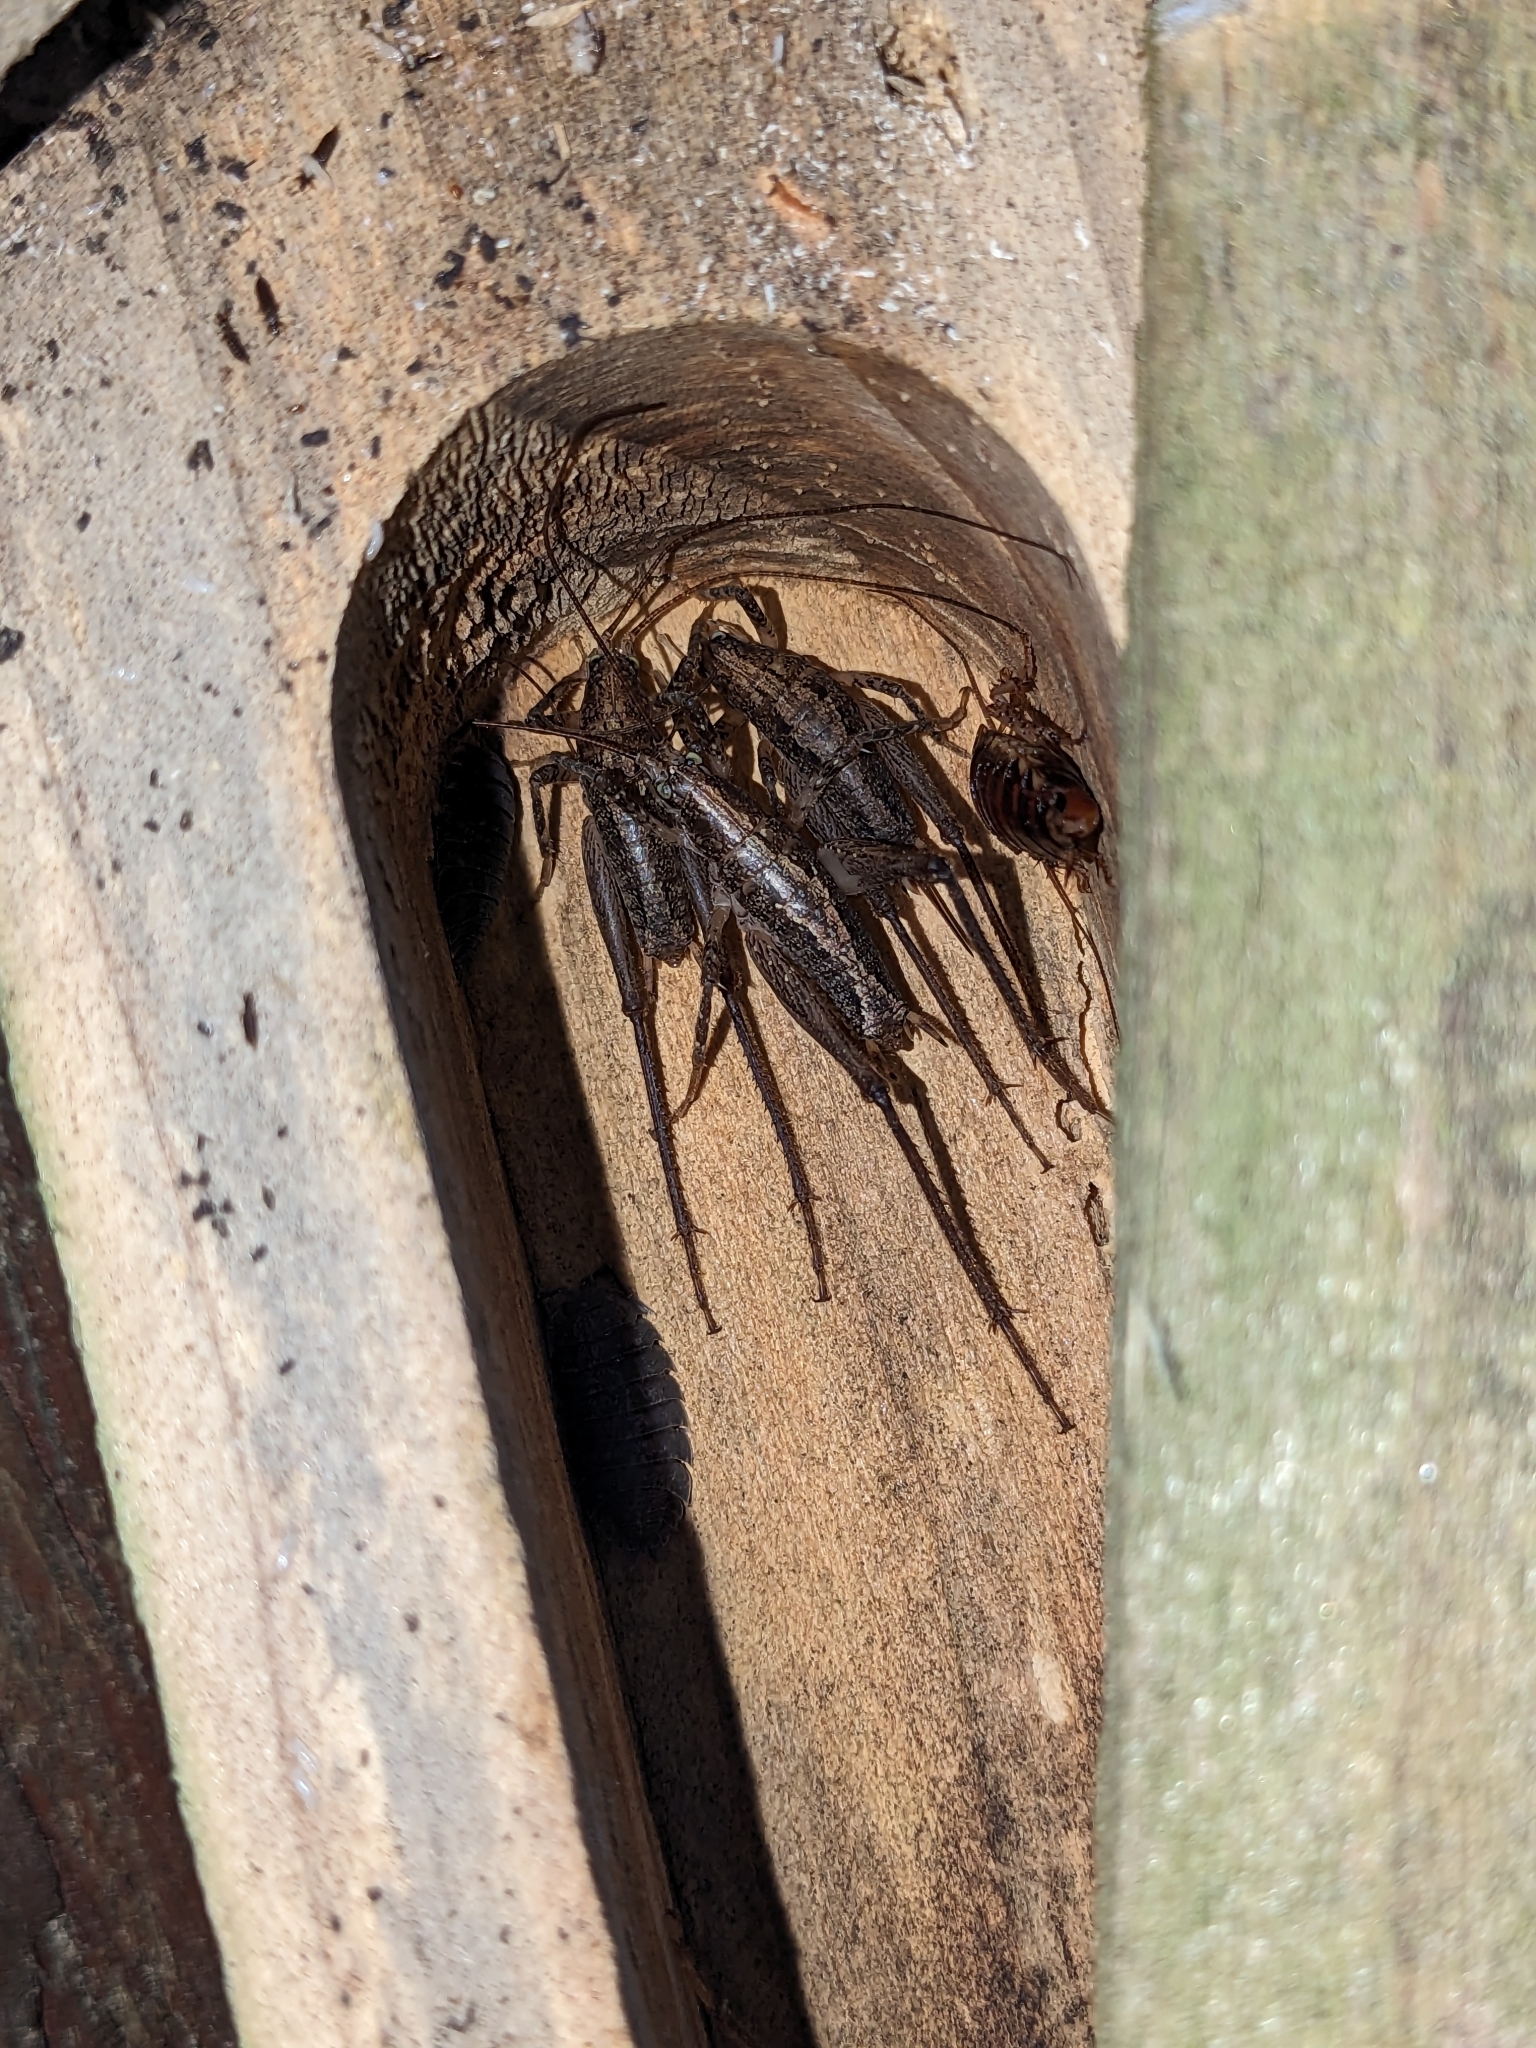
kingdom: Animalia
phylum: Arthropoda
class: Insecta
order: Orthoptera
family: Rhaphidophoridae
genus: Isoplectron
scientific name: Isoplectron armatum
